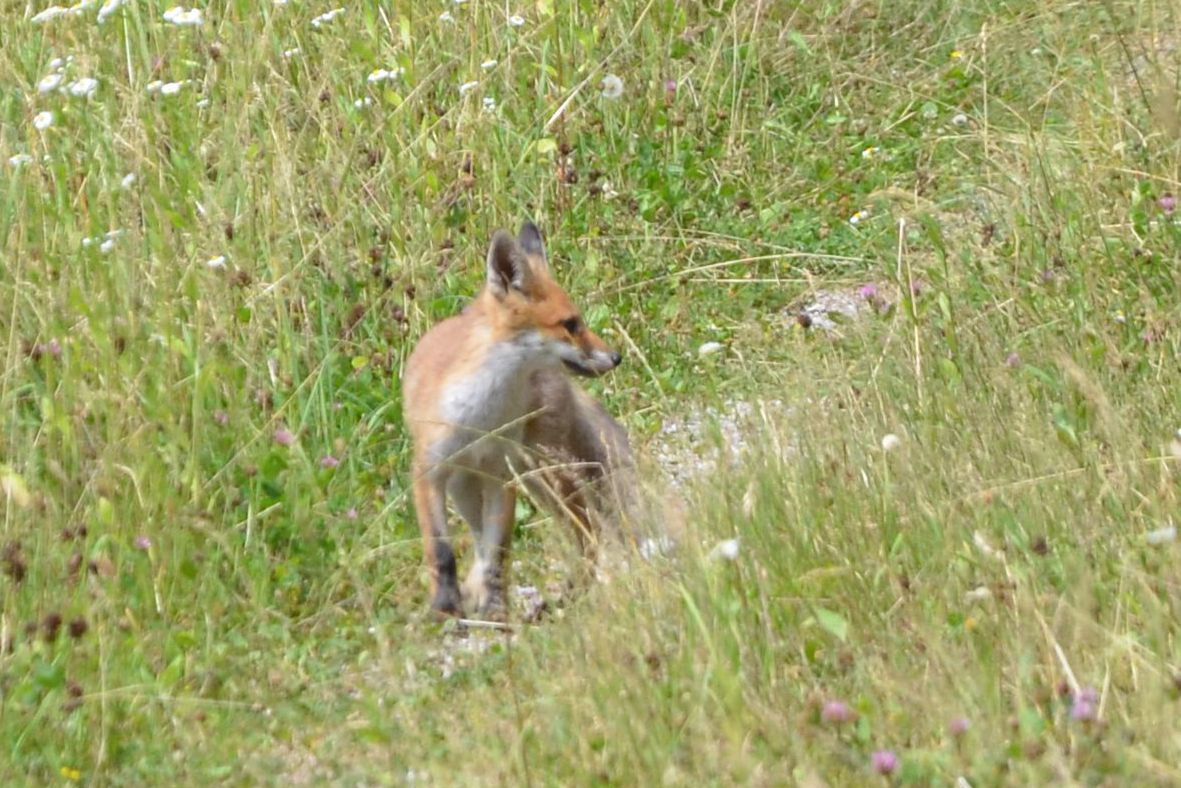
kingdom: Animalia
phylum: Chordata
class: Mammalia
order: Carnivora
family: Canidae
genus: Vulpes
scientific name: Vulpes vulpes
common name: Red fox
